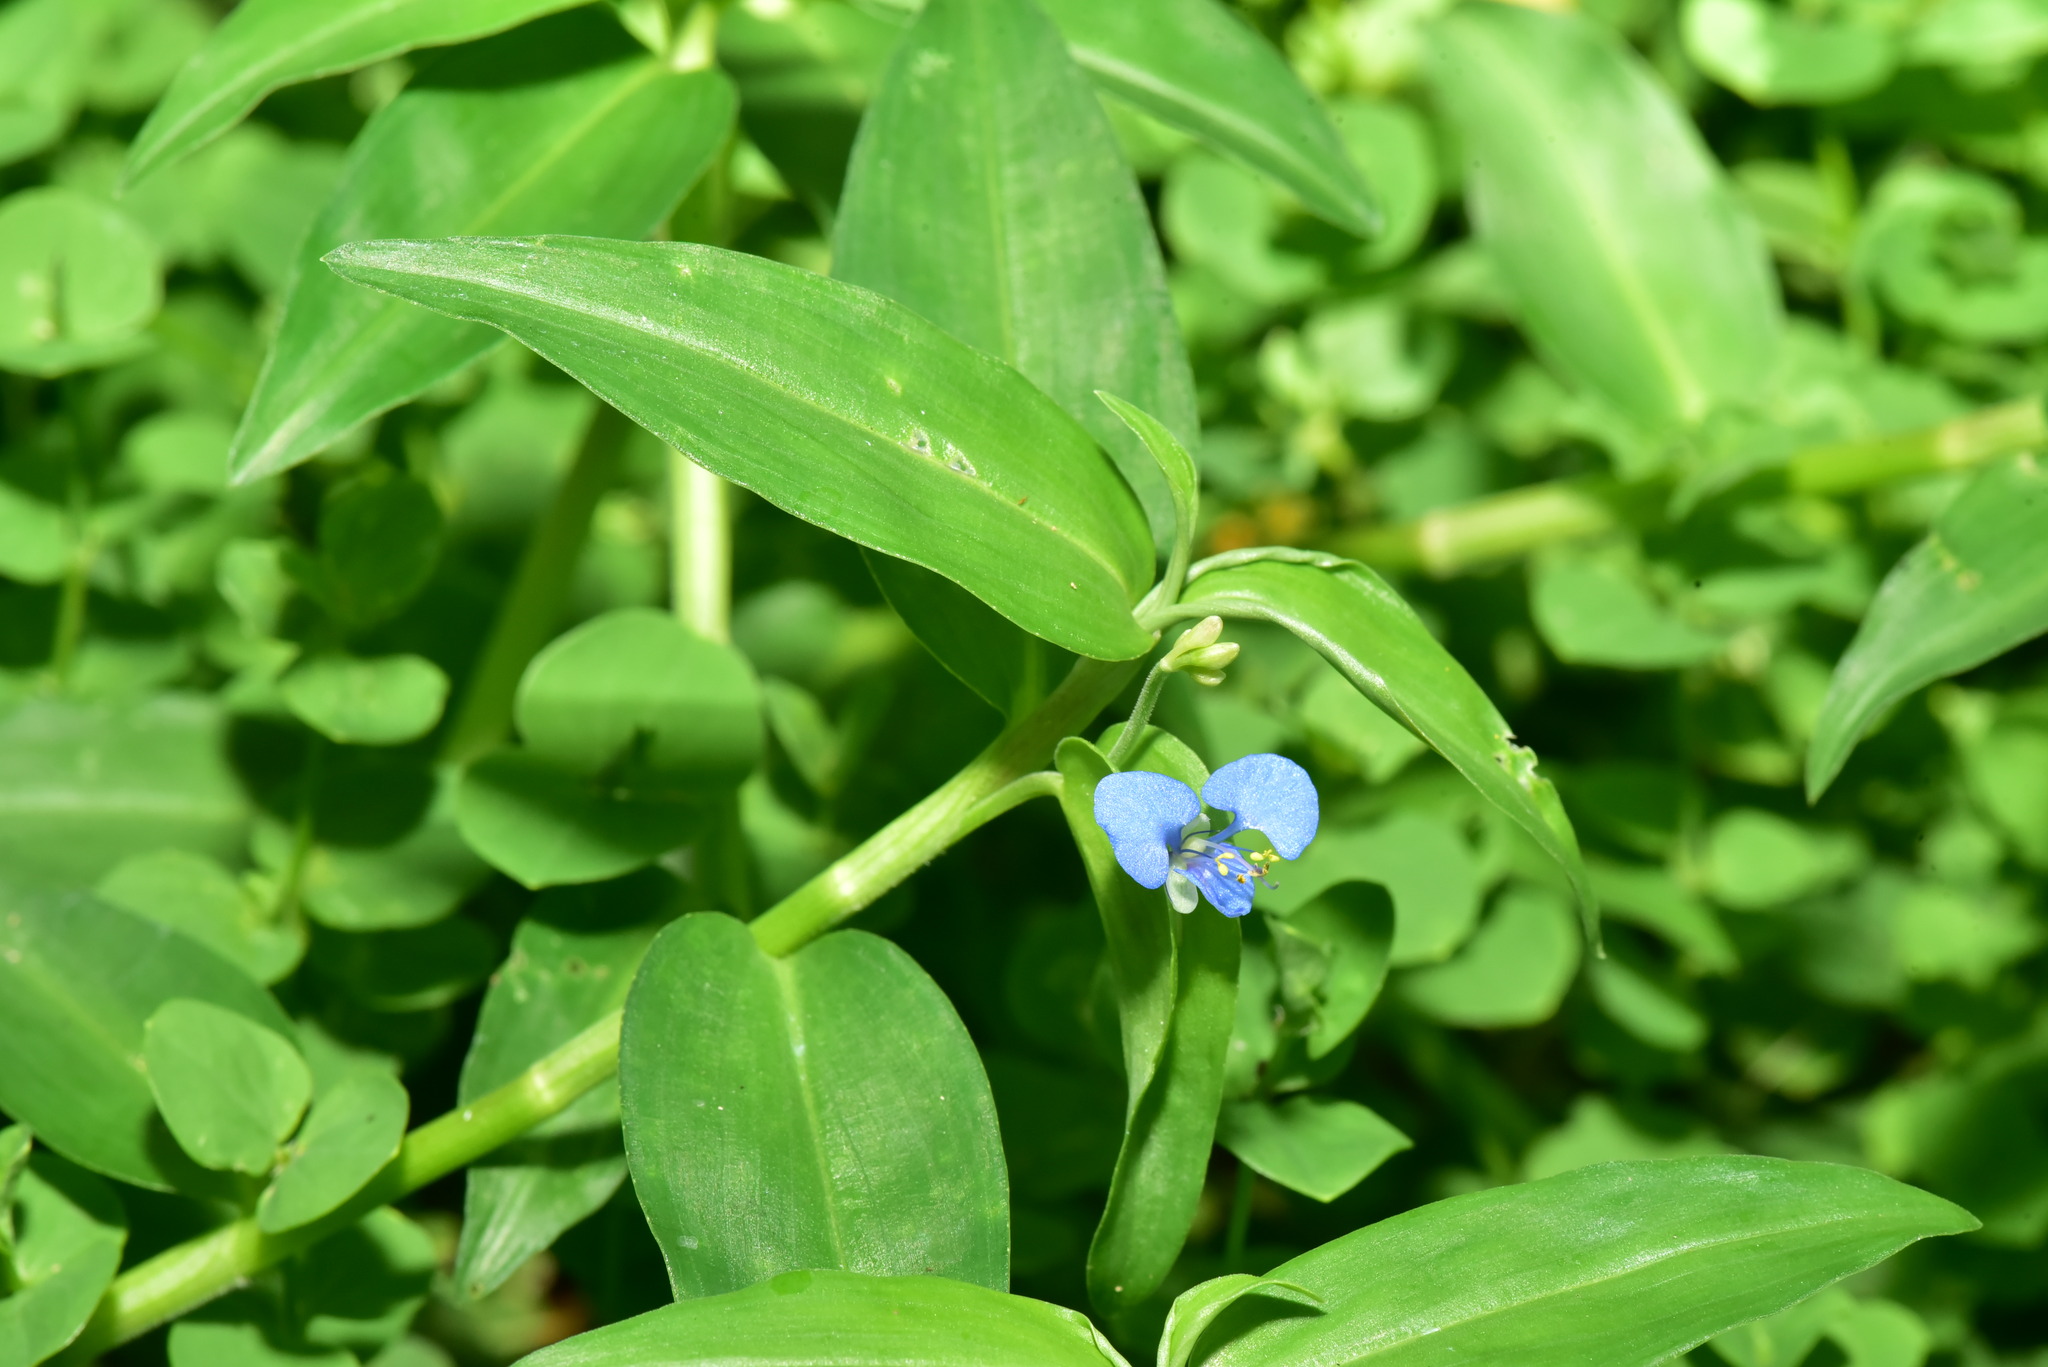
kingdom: Plantae
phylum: Tracheophyta
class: Liliopsida
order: Commelinales
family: Commelinaceae
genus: Commelina
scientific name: Commelina diffusa
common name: Climbing dayflower
